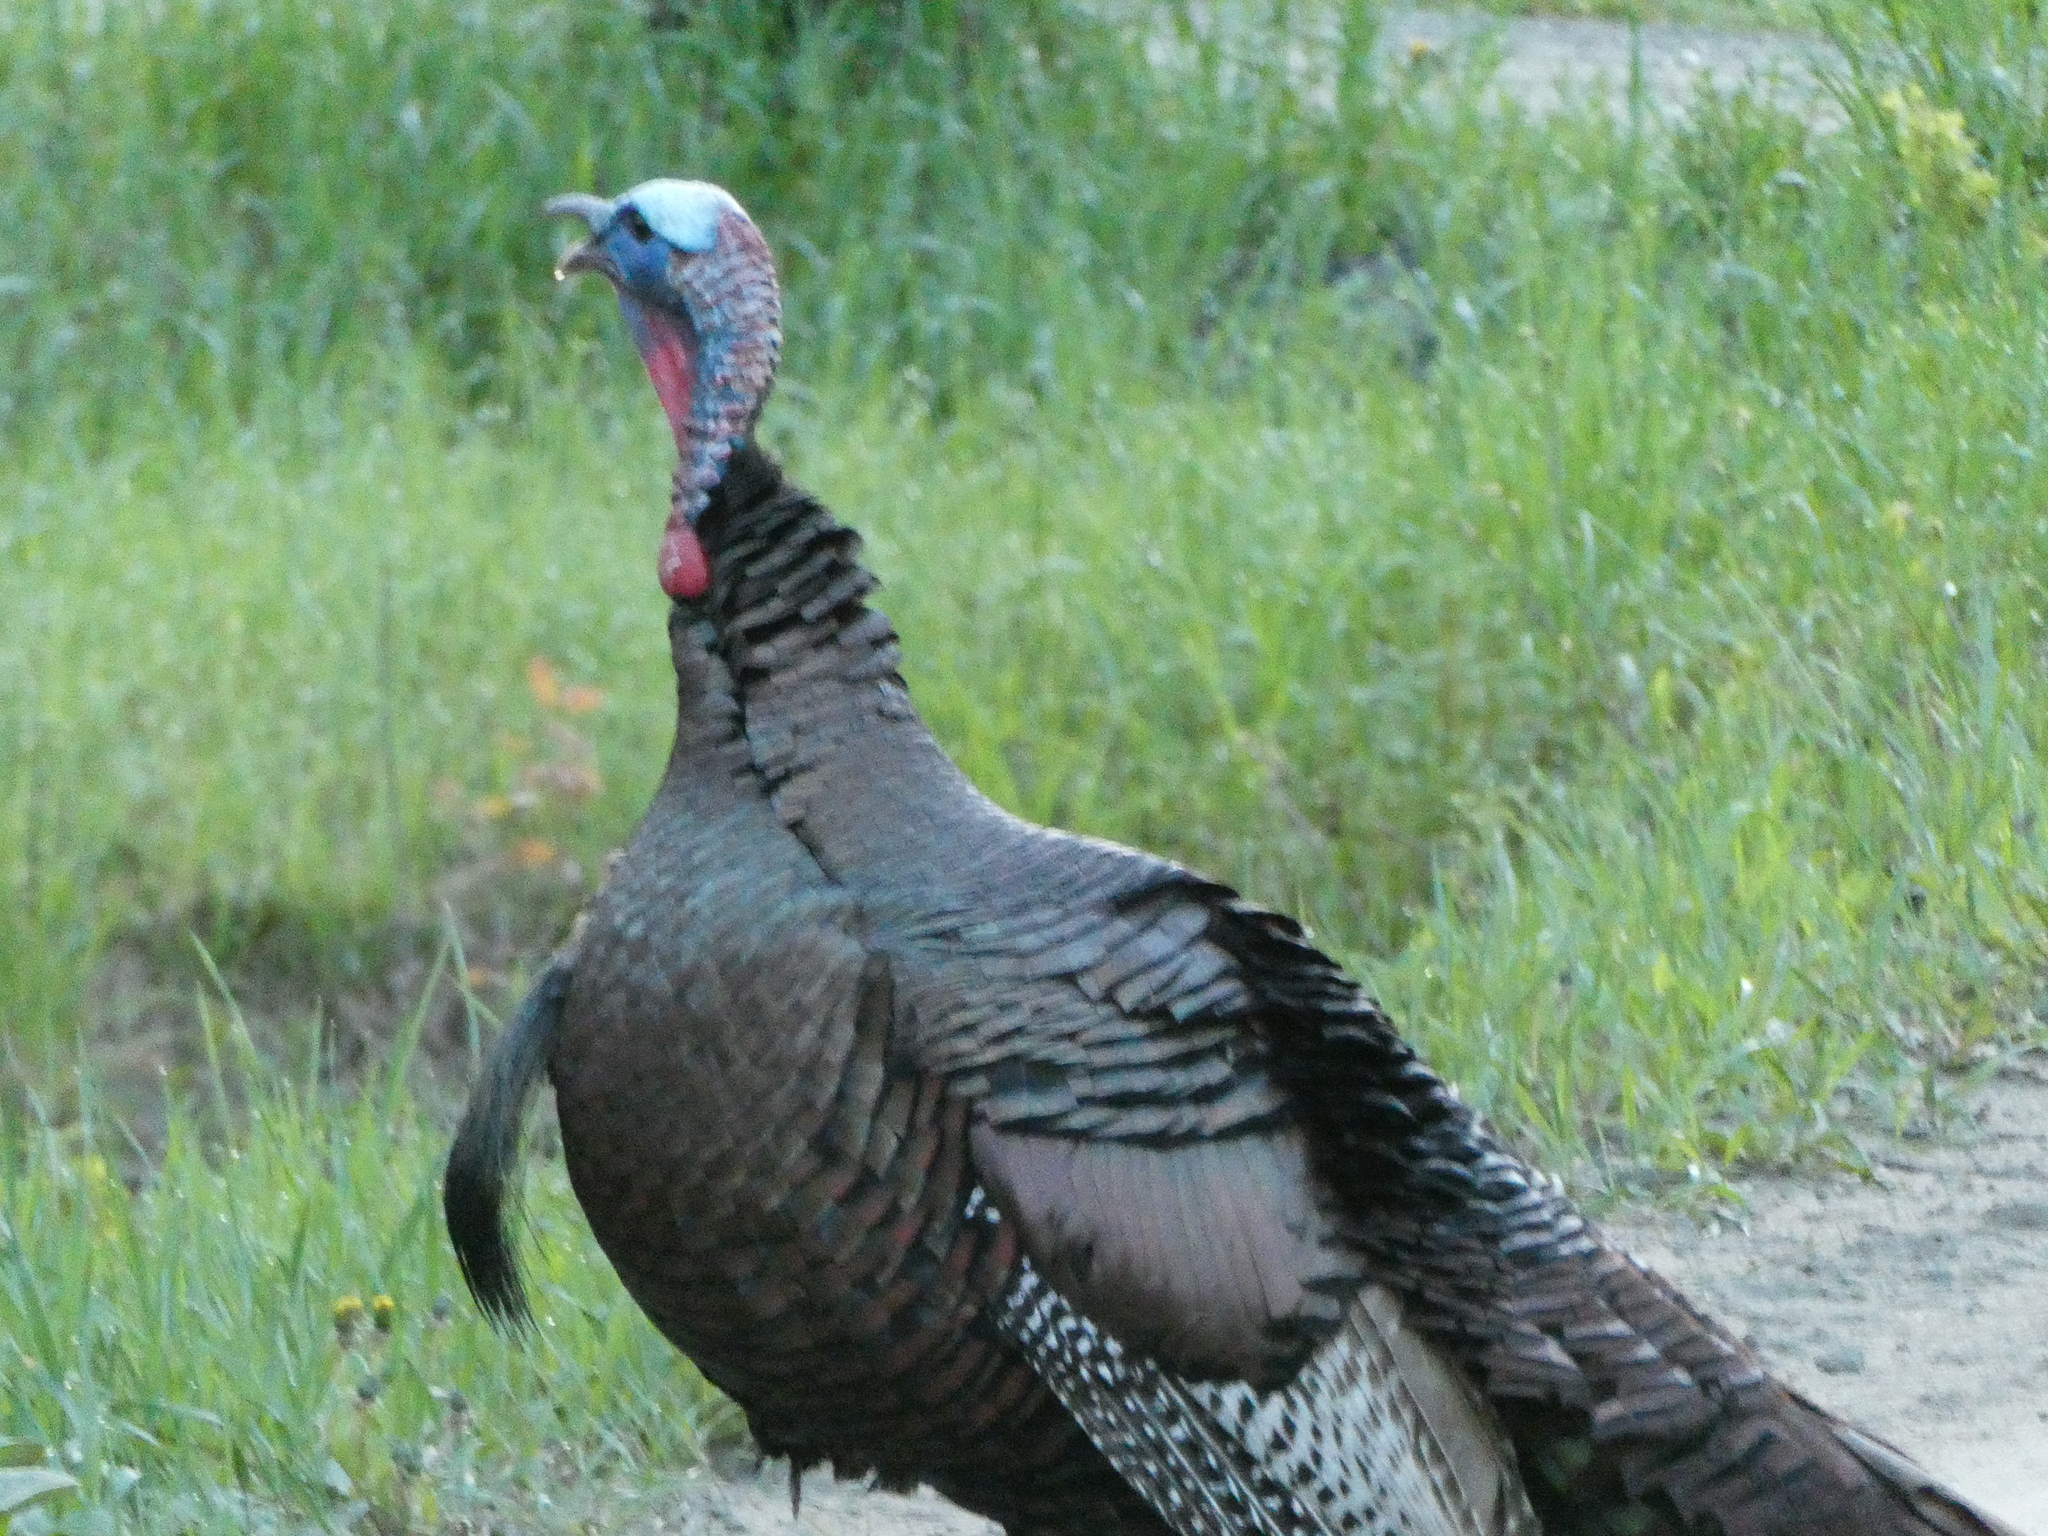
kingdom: Animalia
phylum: Chordata
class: Aves
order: Galliformes
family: Phasianidae
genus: Meleagris
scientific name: Meleagris gallopavo
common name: Wild turkey
